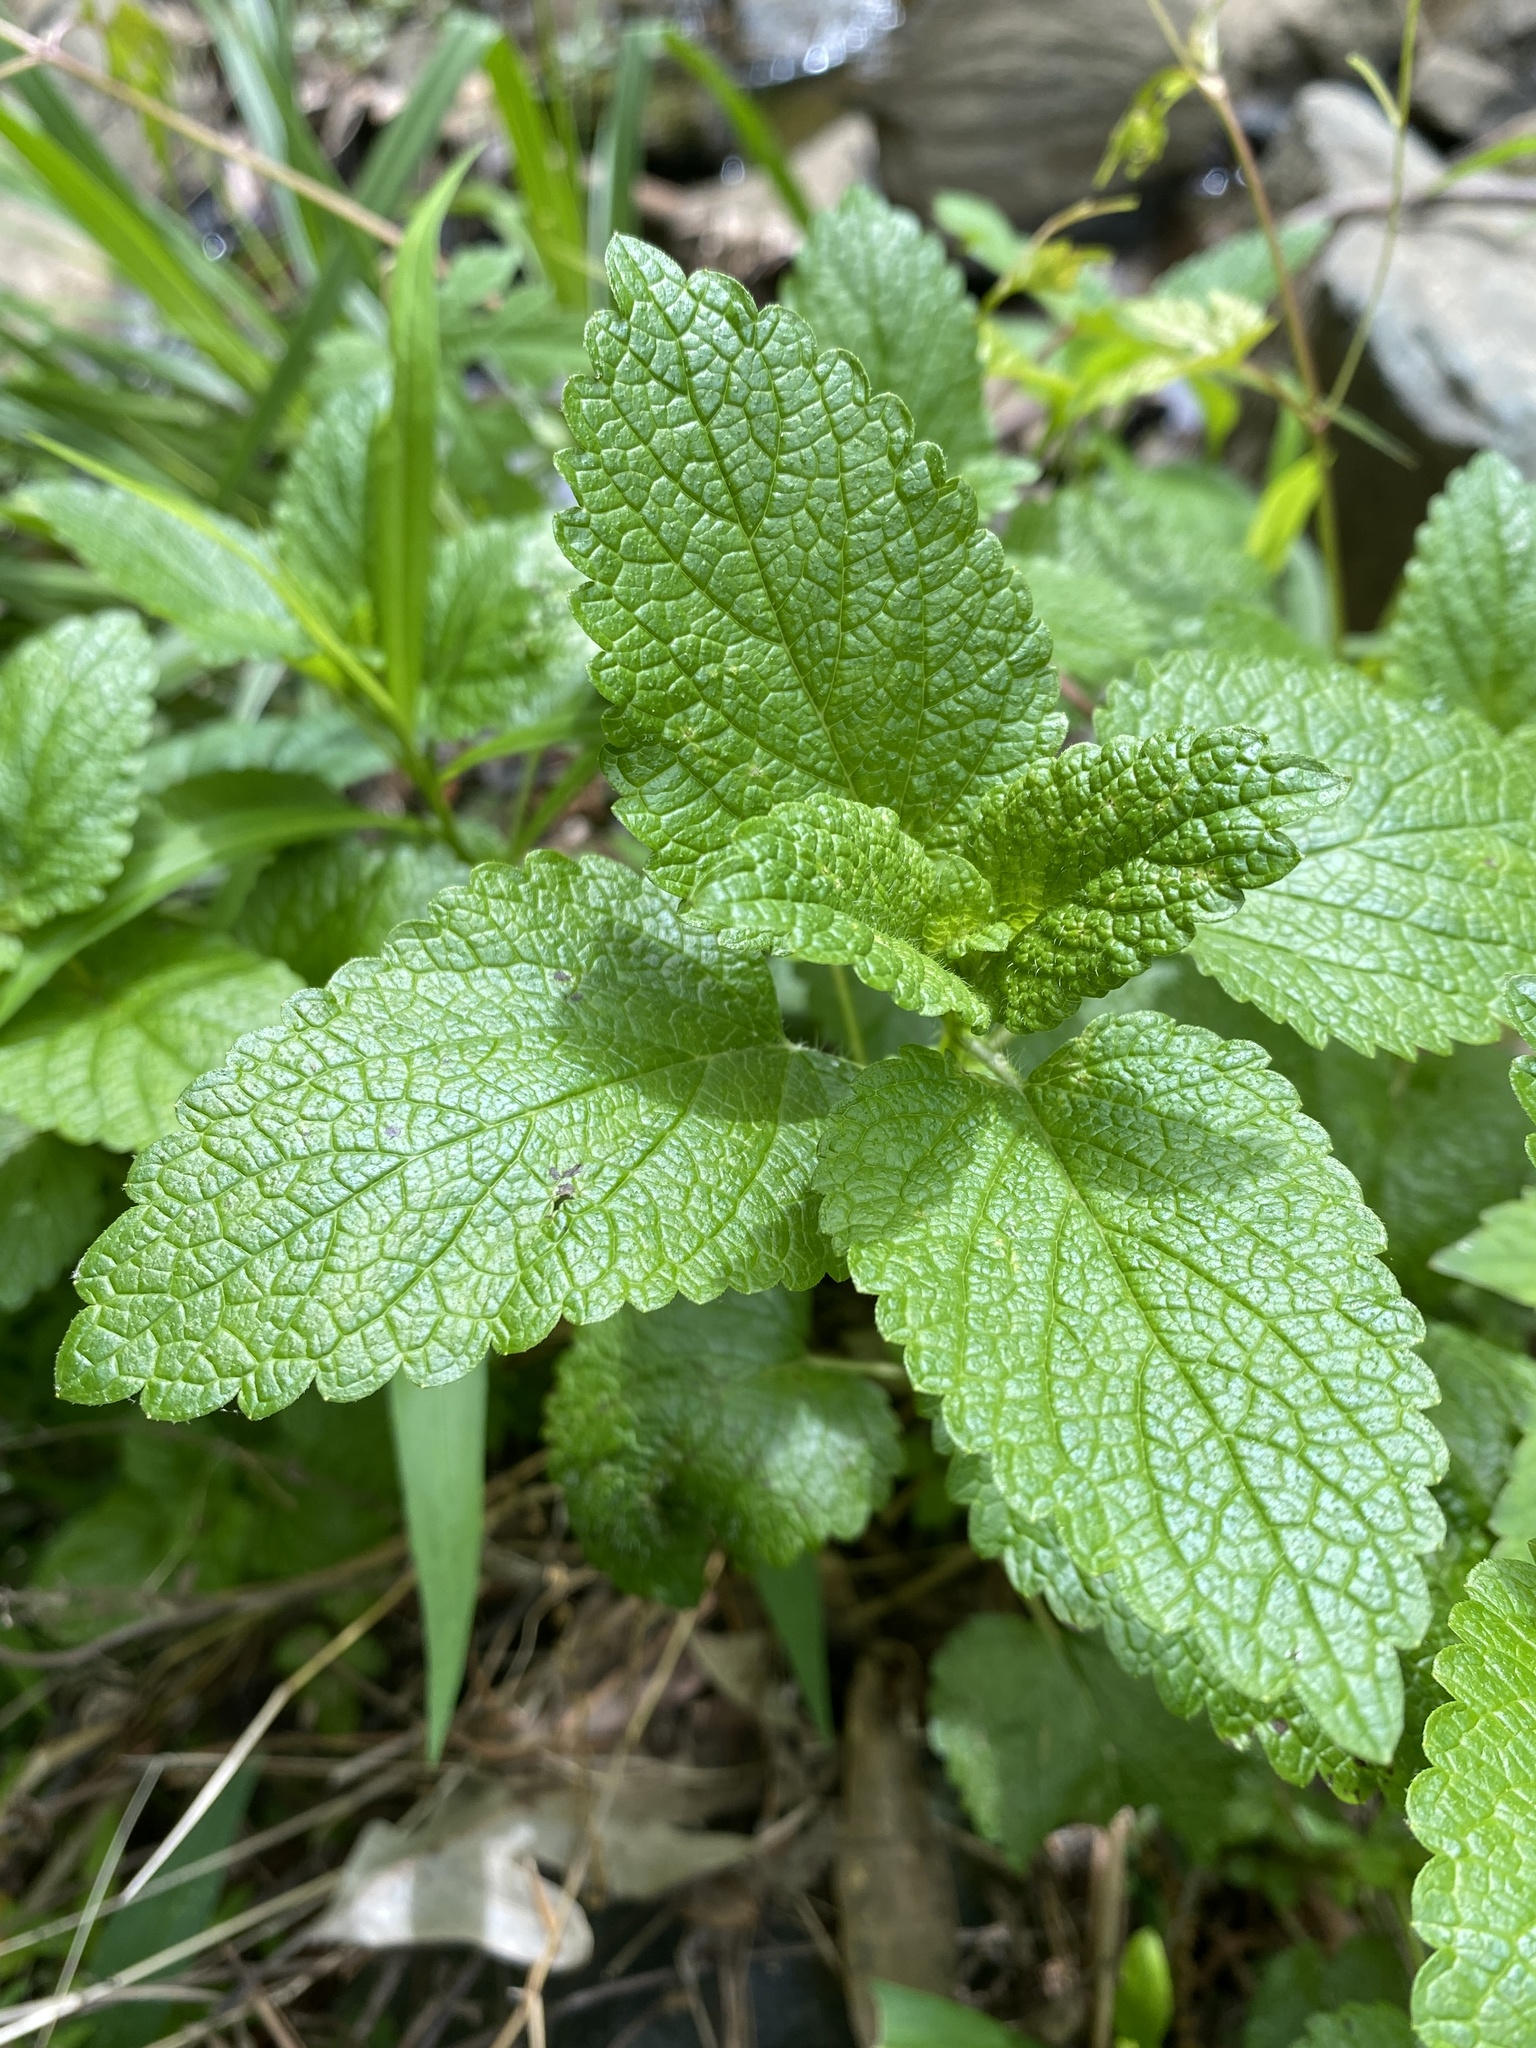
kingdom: Plantae
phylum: Tracheophyta
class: Magnoliopsida
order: Lamiales
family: Lamiaceae
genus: Melissa
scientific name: Melissa officinalis
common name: Balm
